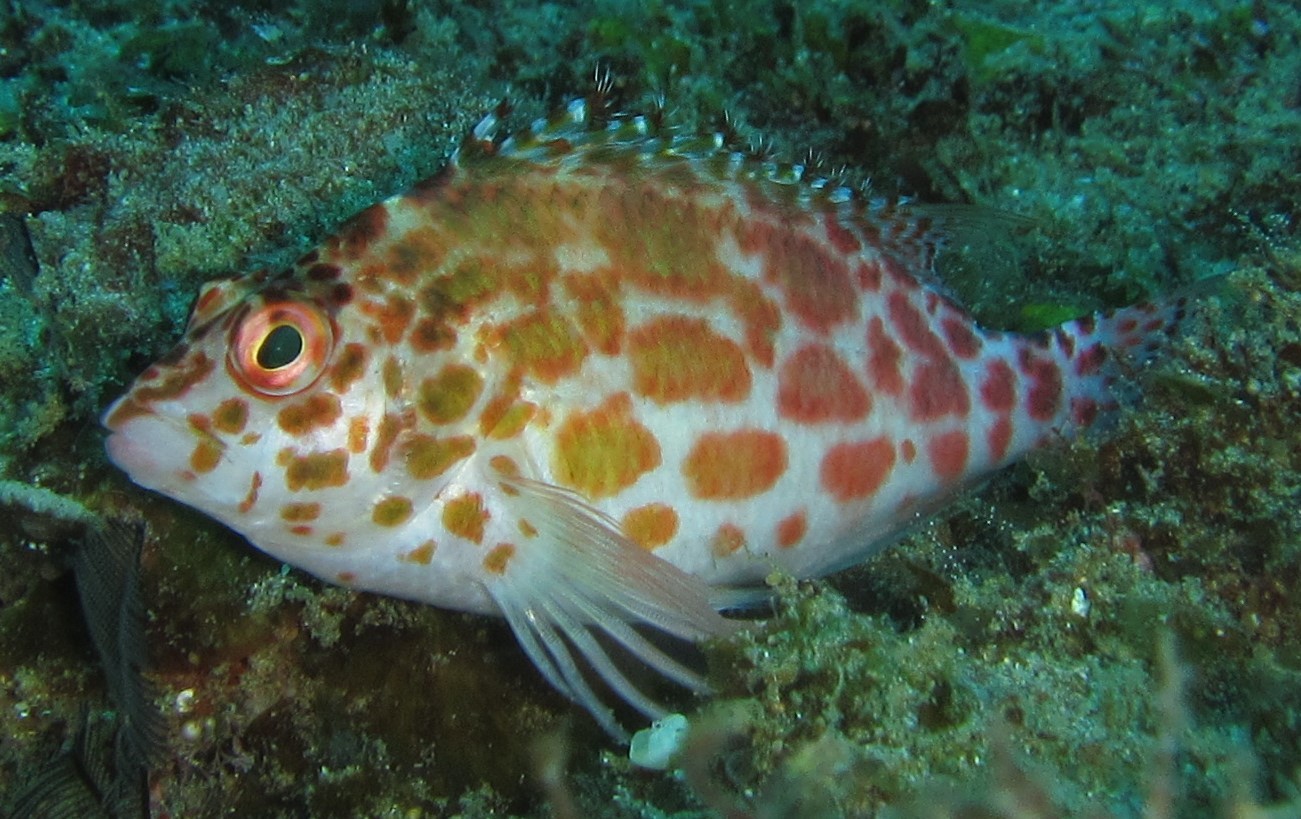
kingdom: Animalia
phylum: Chordata
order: Perciformes
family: Cirrhitidae
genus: Cirrhitichthys
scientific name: Cirrhitichthys oxycephalus
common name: Spotted hawkfish
